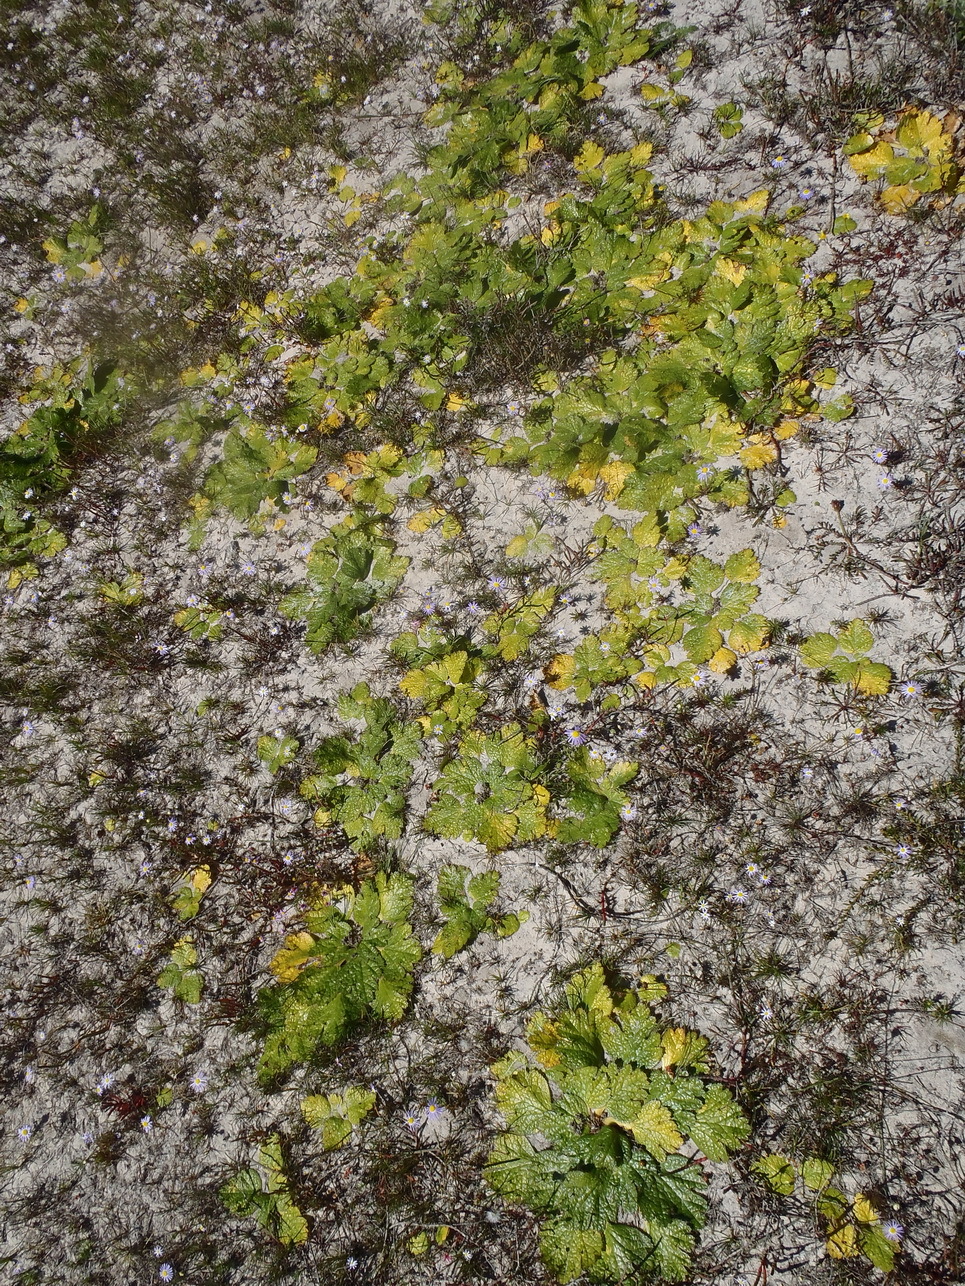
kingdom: Plantae
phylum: Tracheophyta
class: Magnoliopsida
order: Apiales
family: Apiaceae
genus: Arctopus
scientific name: Arctopus echinatus
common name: Platdoring
